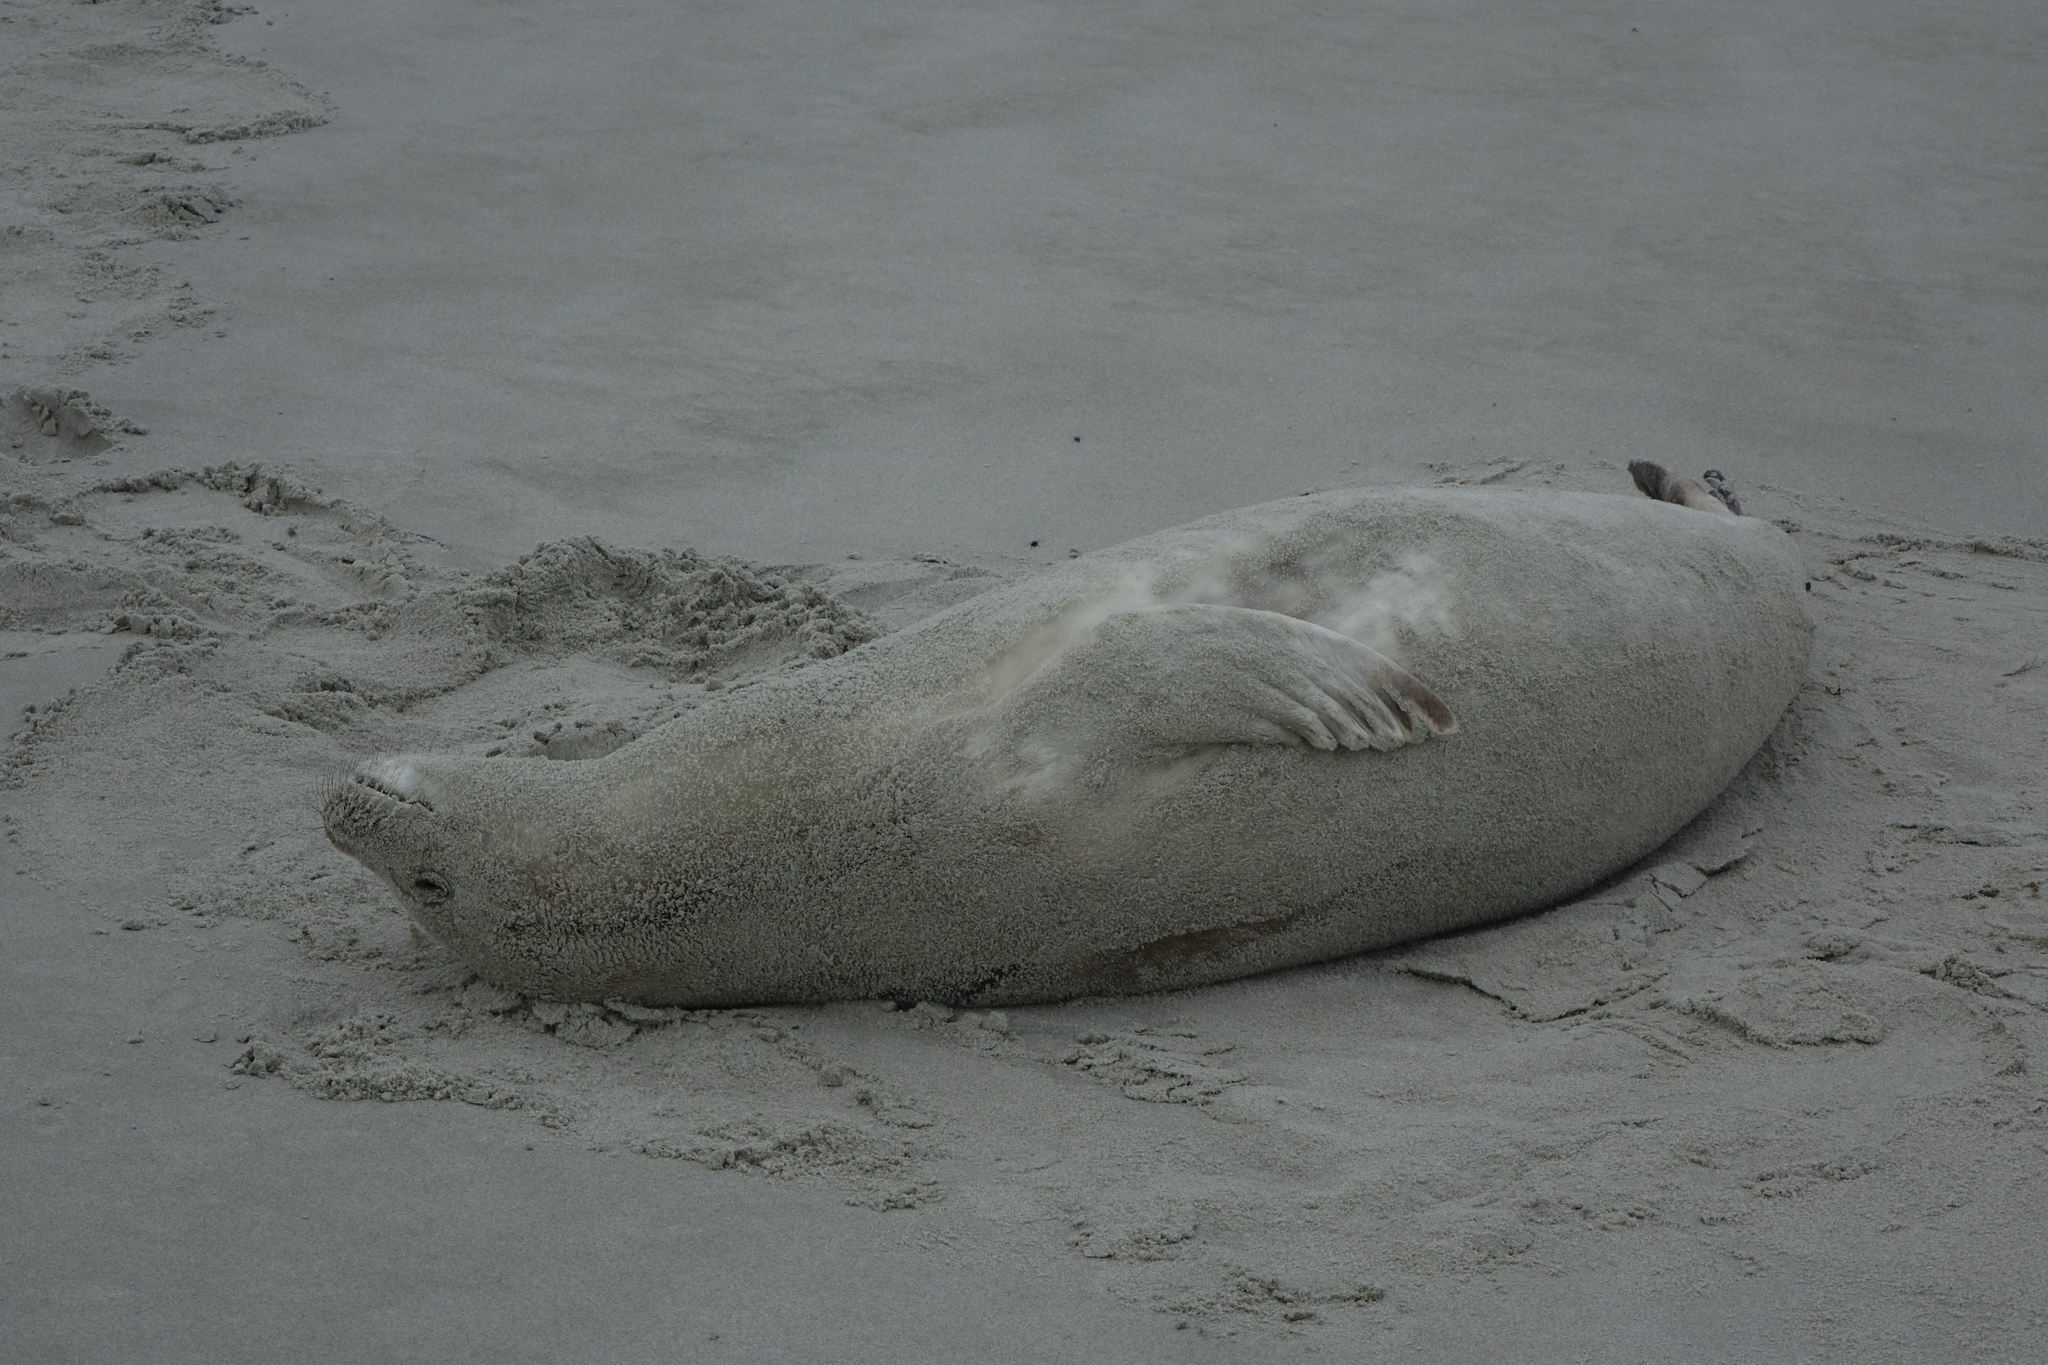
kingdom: Animalia
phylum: Chordata
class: Mammalia
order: Carnivora
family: Phocidae
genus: Lobodon
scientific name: Lobodon carcinophaga
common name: Crabeater seal
